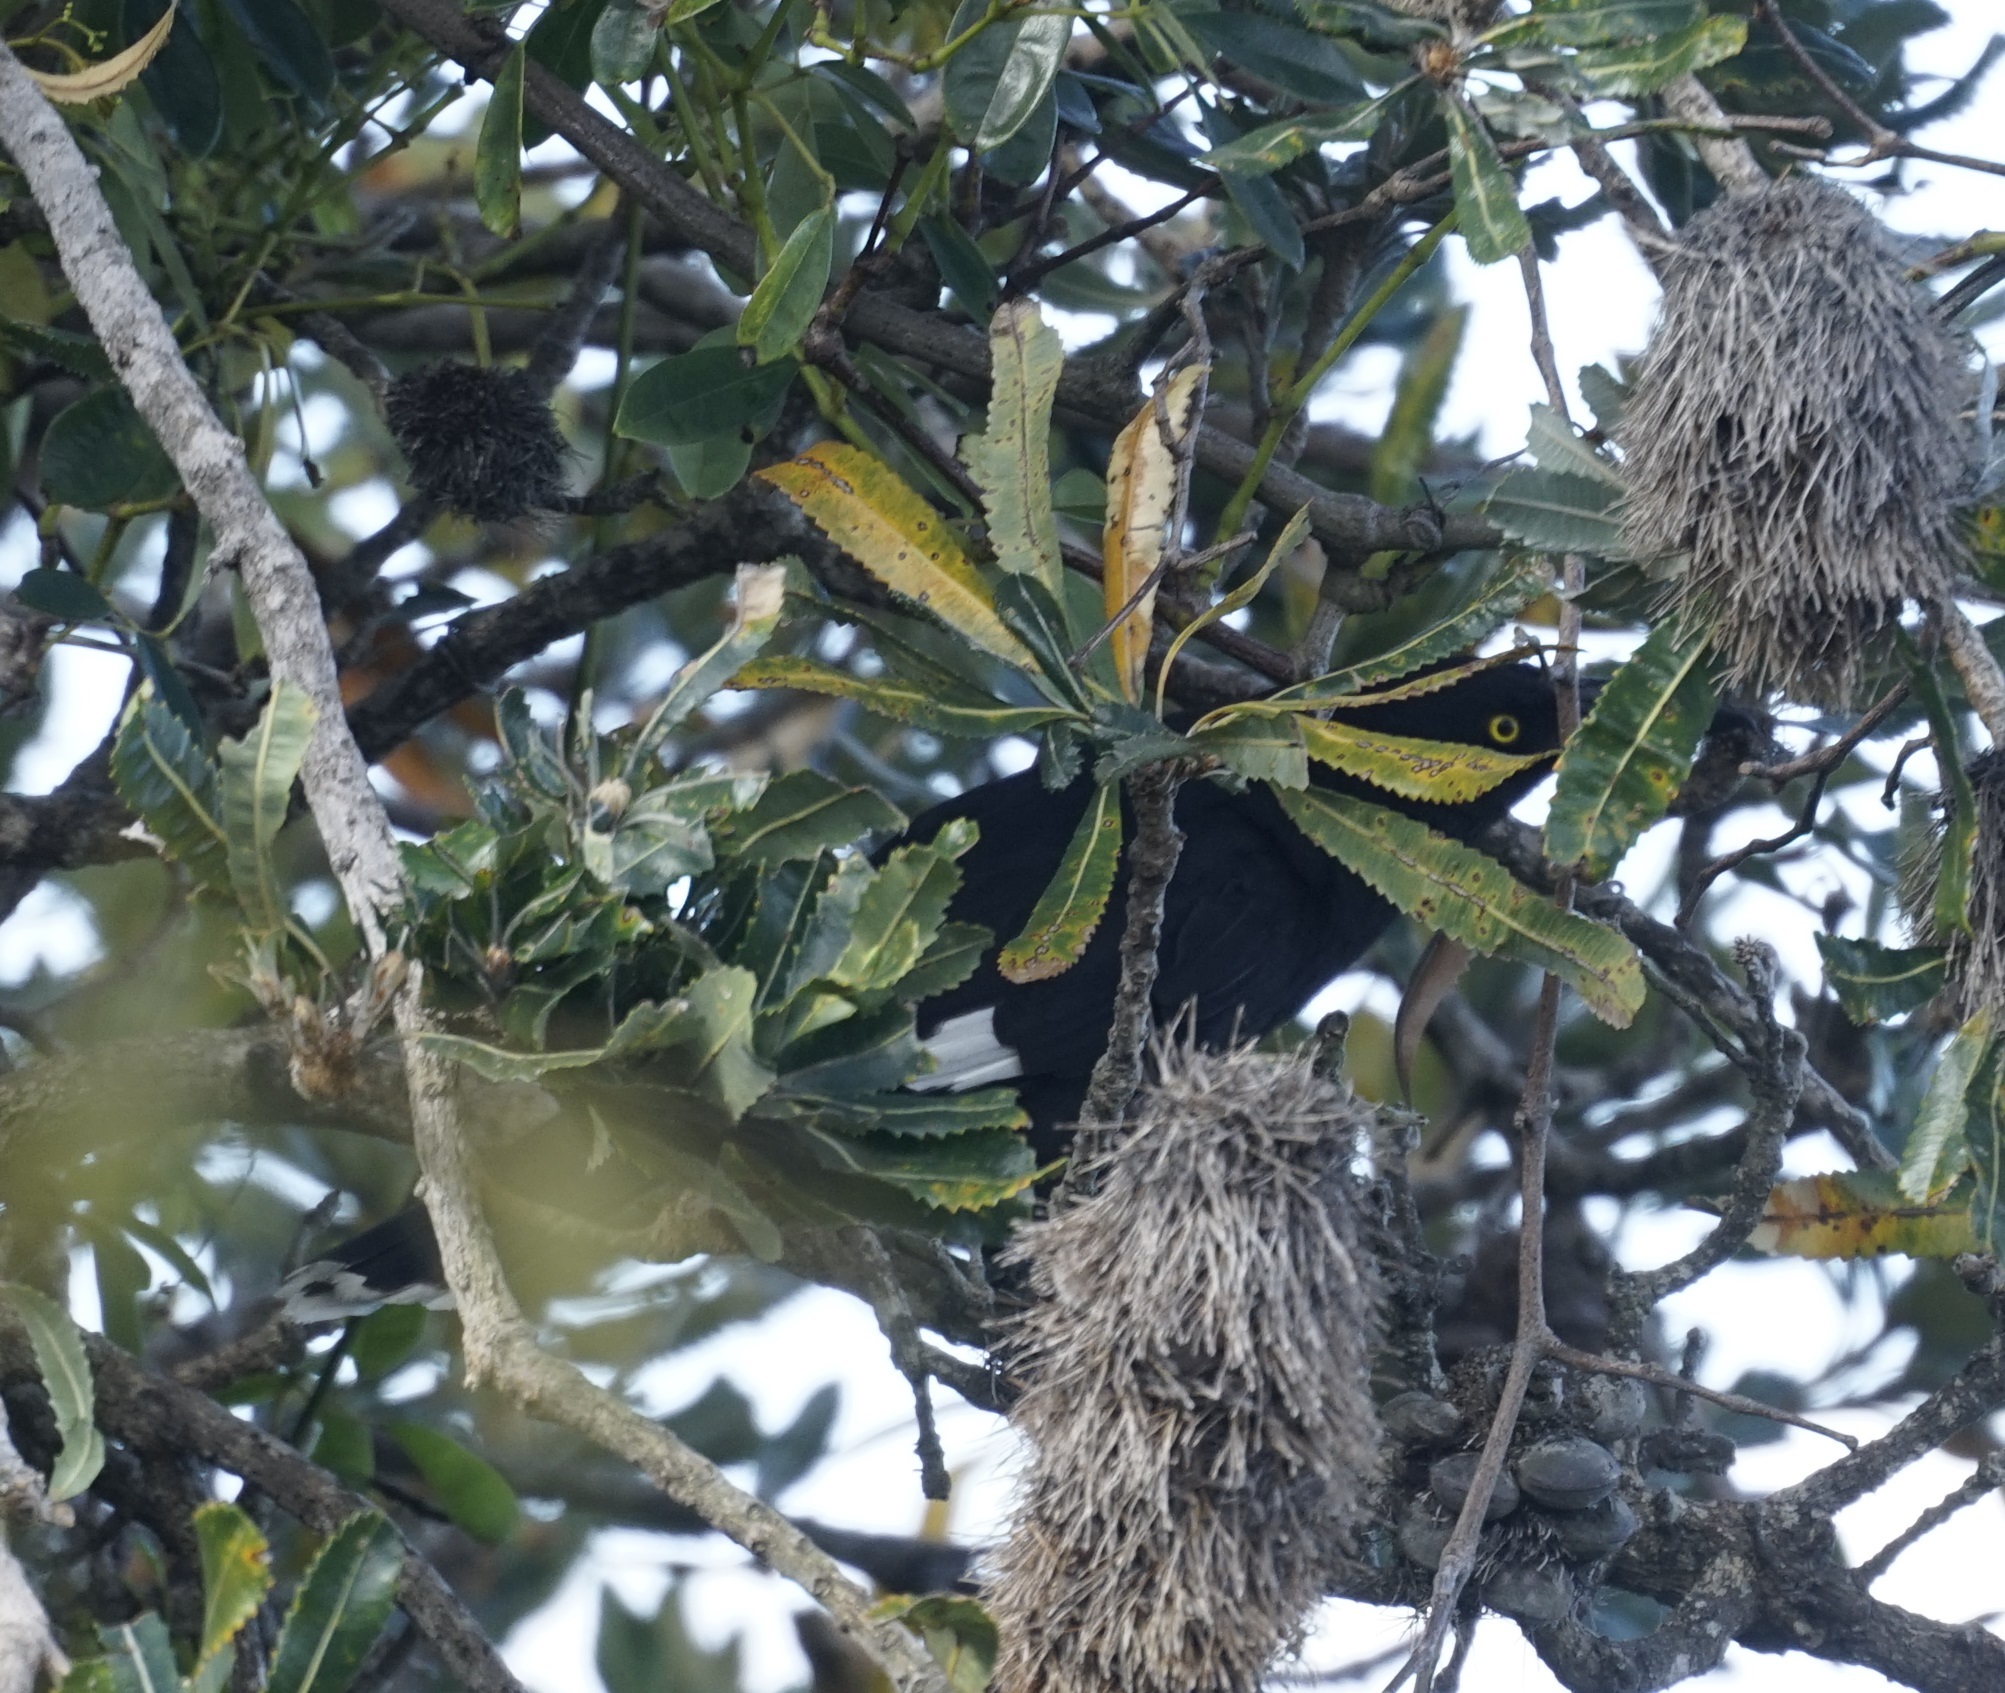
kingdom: Animalia
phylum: Chordata
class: Aves
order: Passeriformes
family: Cracticidae
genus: Strepera
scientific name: Strepera graculina
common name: Pied currawong
